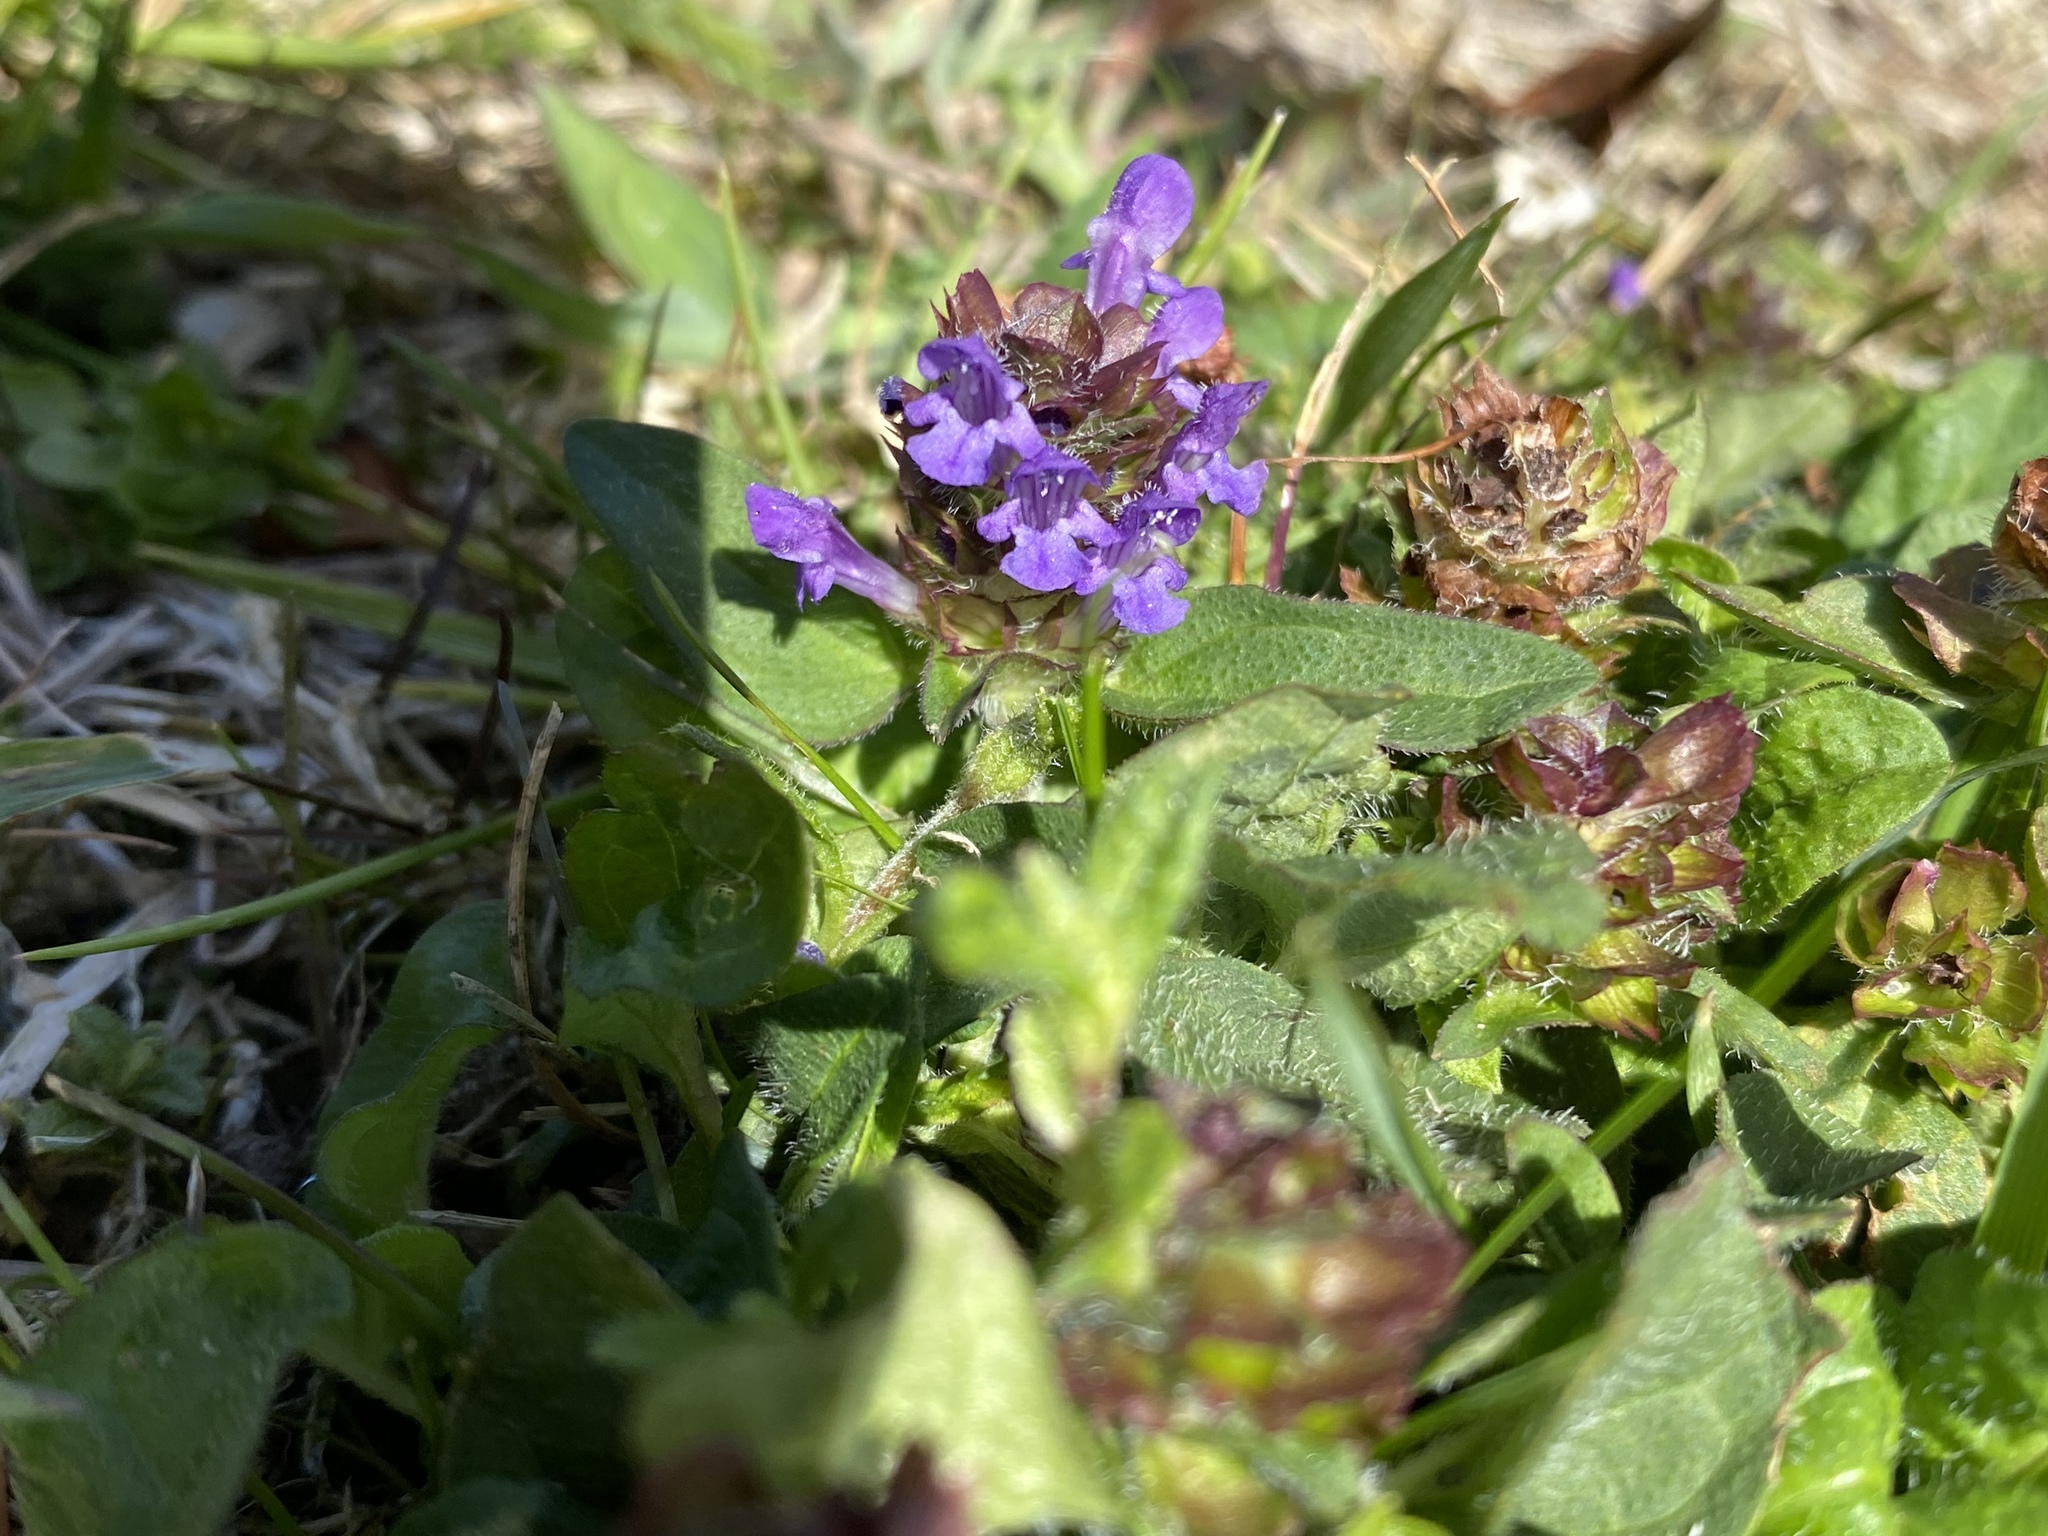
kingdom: Plantae
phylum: Tracheophyta
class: Magnoliopsida
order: Lamiales
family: Lamiaceae
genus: Prunella
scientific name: Prunella vulgaris
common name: Heal-all
